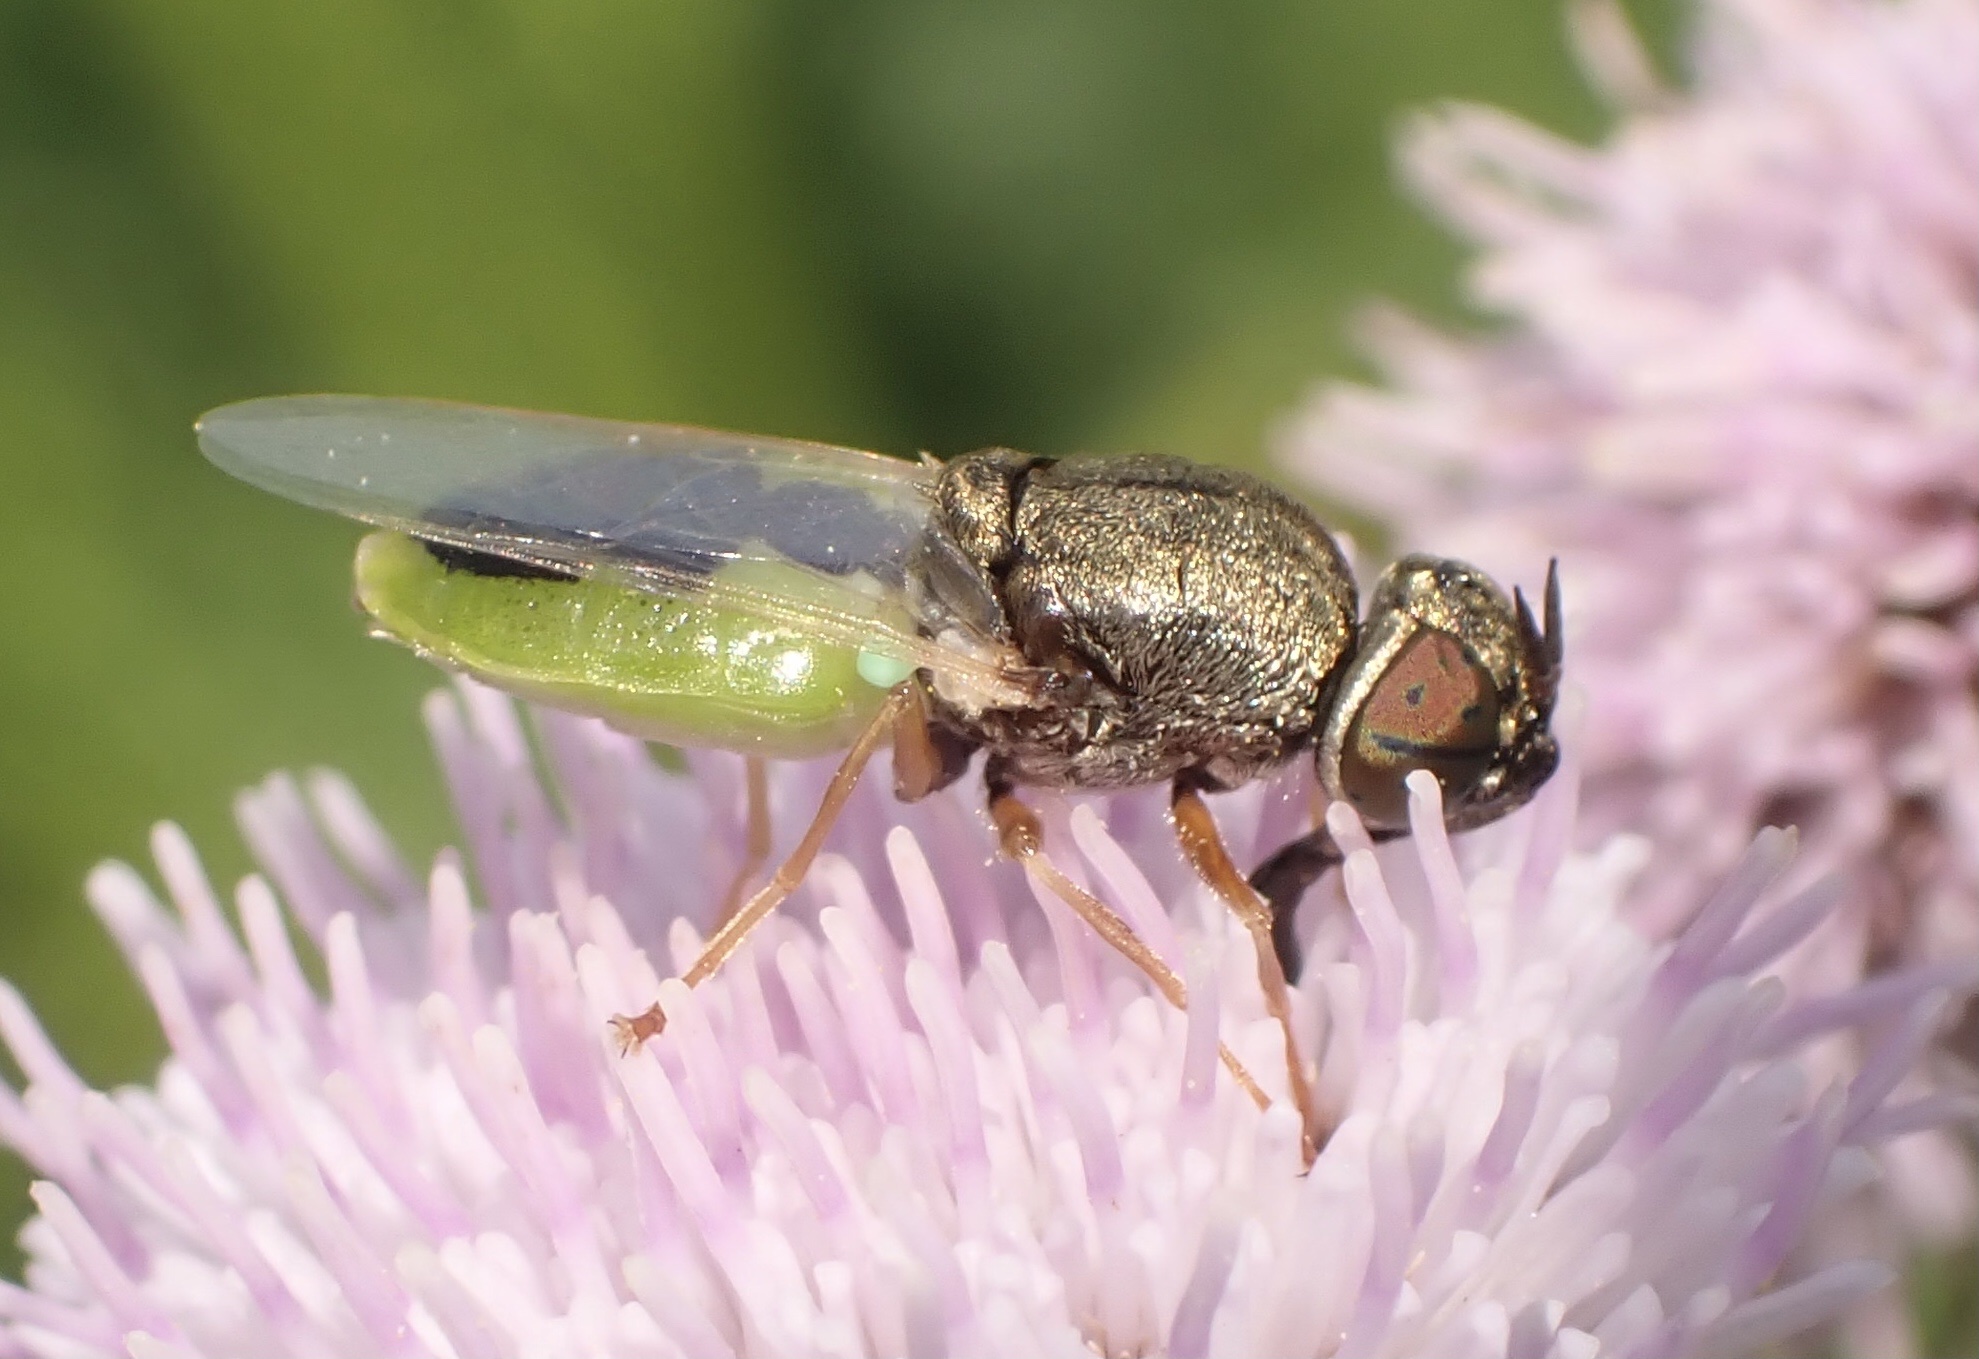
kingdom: Animalia
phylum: Arthropoda
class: Insecta
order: Diptera
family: Stratiomyidae
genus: Oplodontha
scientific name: Oplodontha viridula
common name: Common green colonel
